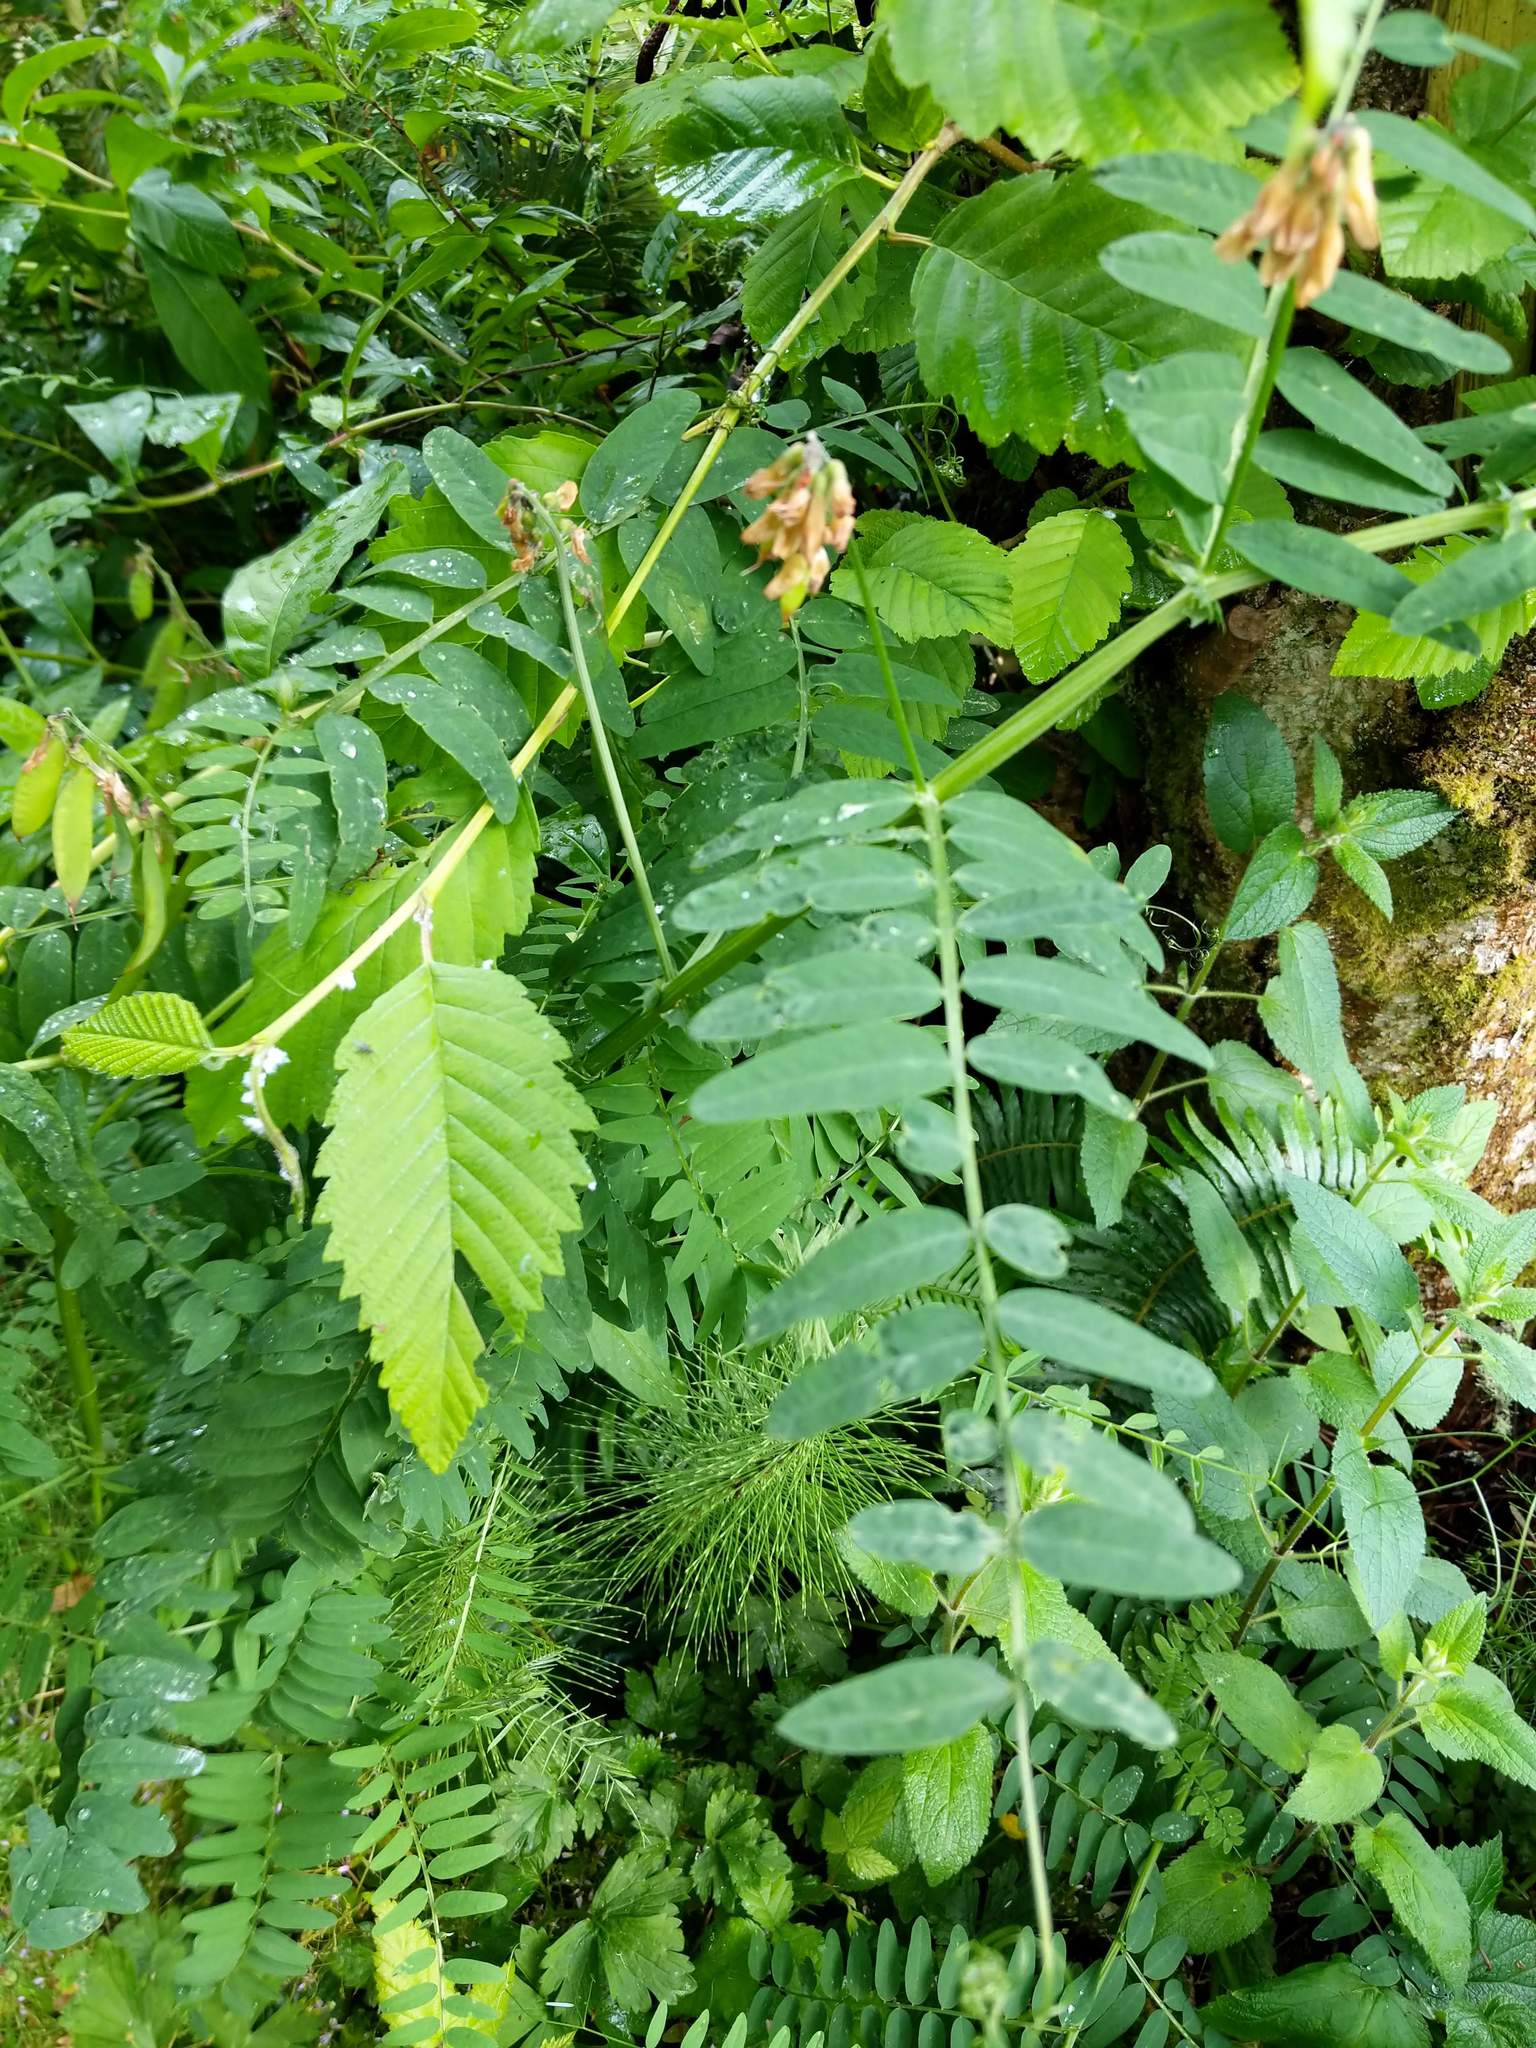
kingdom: Plantae
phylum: Tracheophyta
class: Magnoliopsida
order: Fabales
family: Fabaceae
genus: Vicia
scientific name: Vicia
